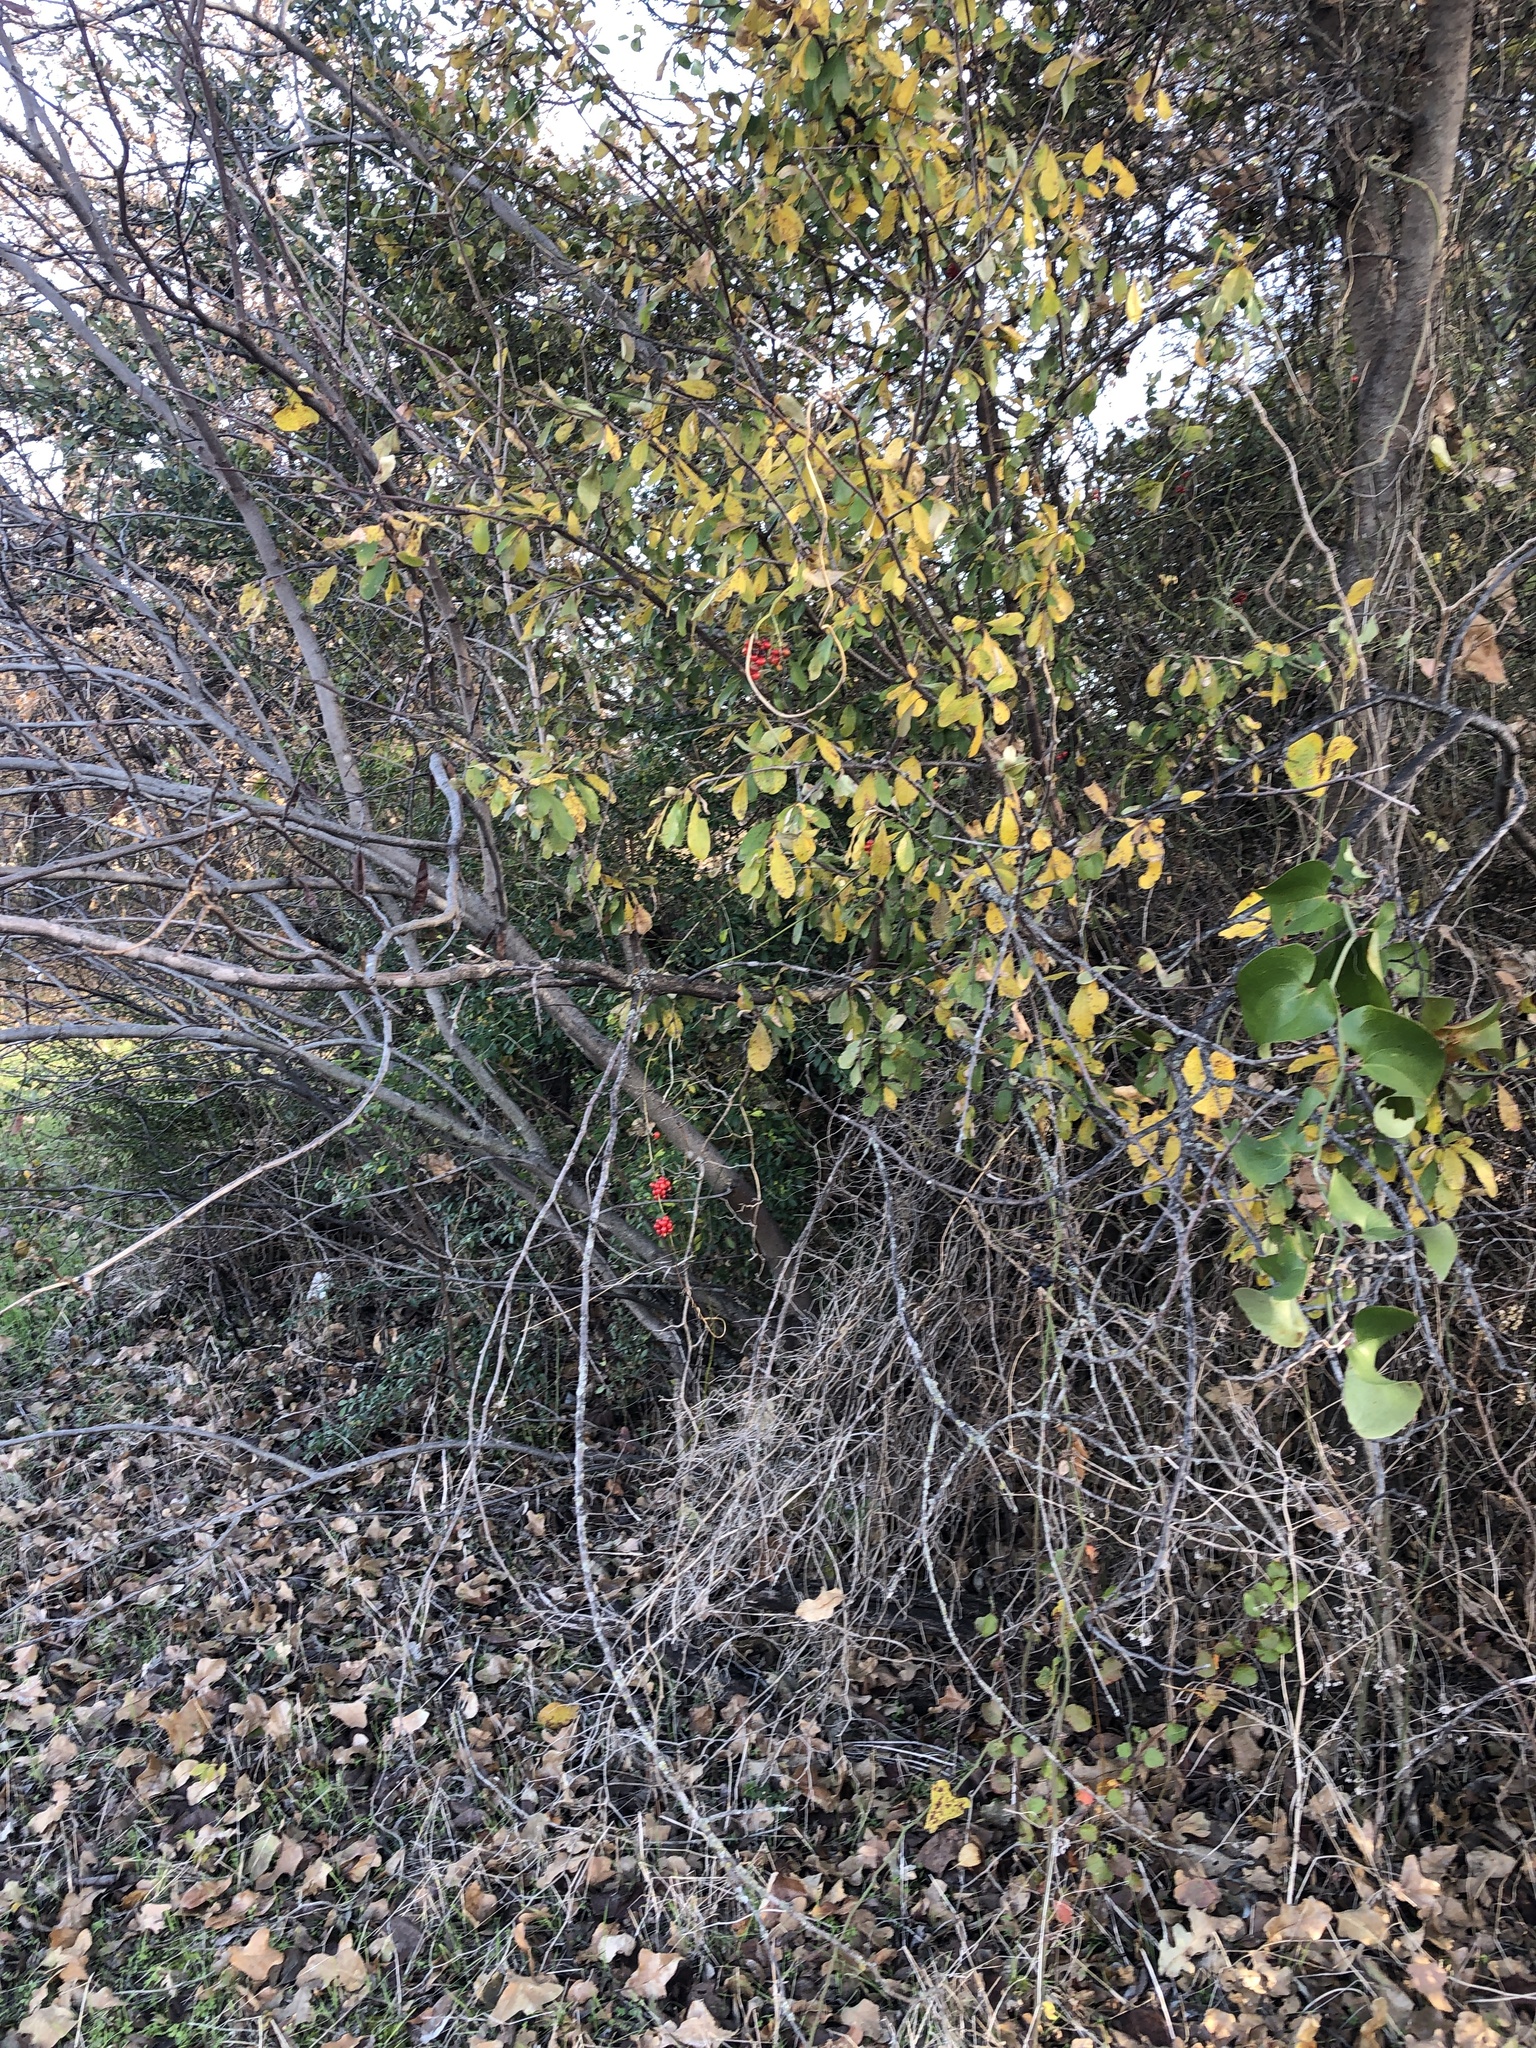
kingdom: Plantae
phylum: Tracheophyta
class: Magnoliopsida
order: Ranunculales
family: Menispermaceae
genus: Cocculus
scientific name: Cocculus carolinus
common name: Carolina moonseed
